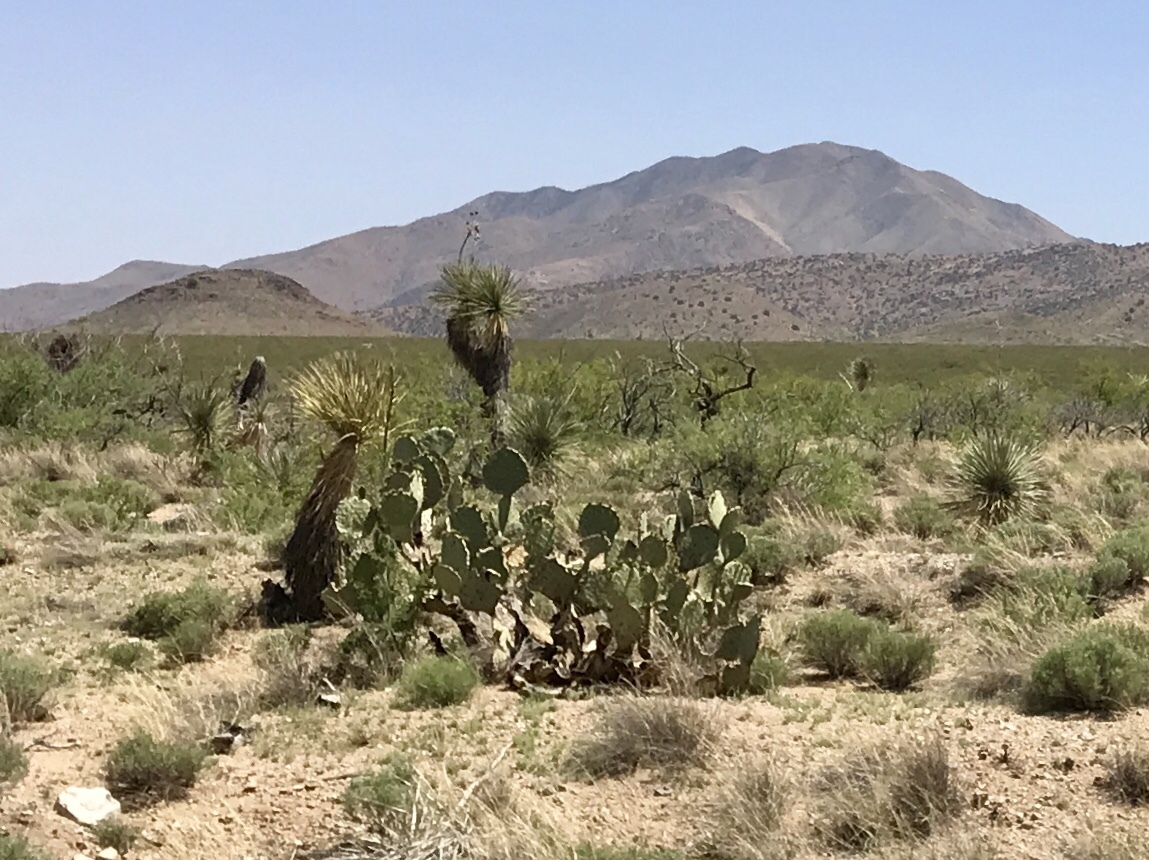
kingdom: Plantae
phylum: Tracheophyta
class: Magnoliopsida
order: Caryophyllales
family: Cactaceae
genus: Opuntia
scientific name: Opuntia orbiculata
